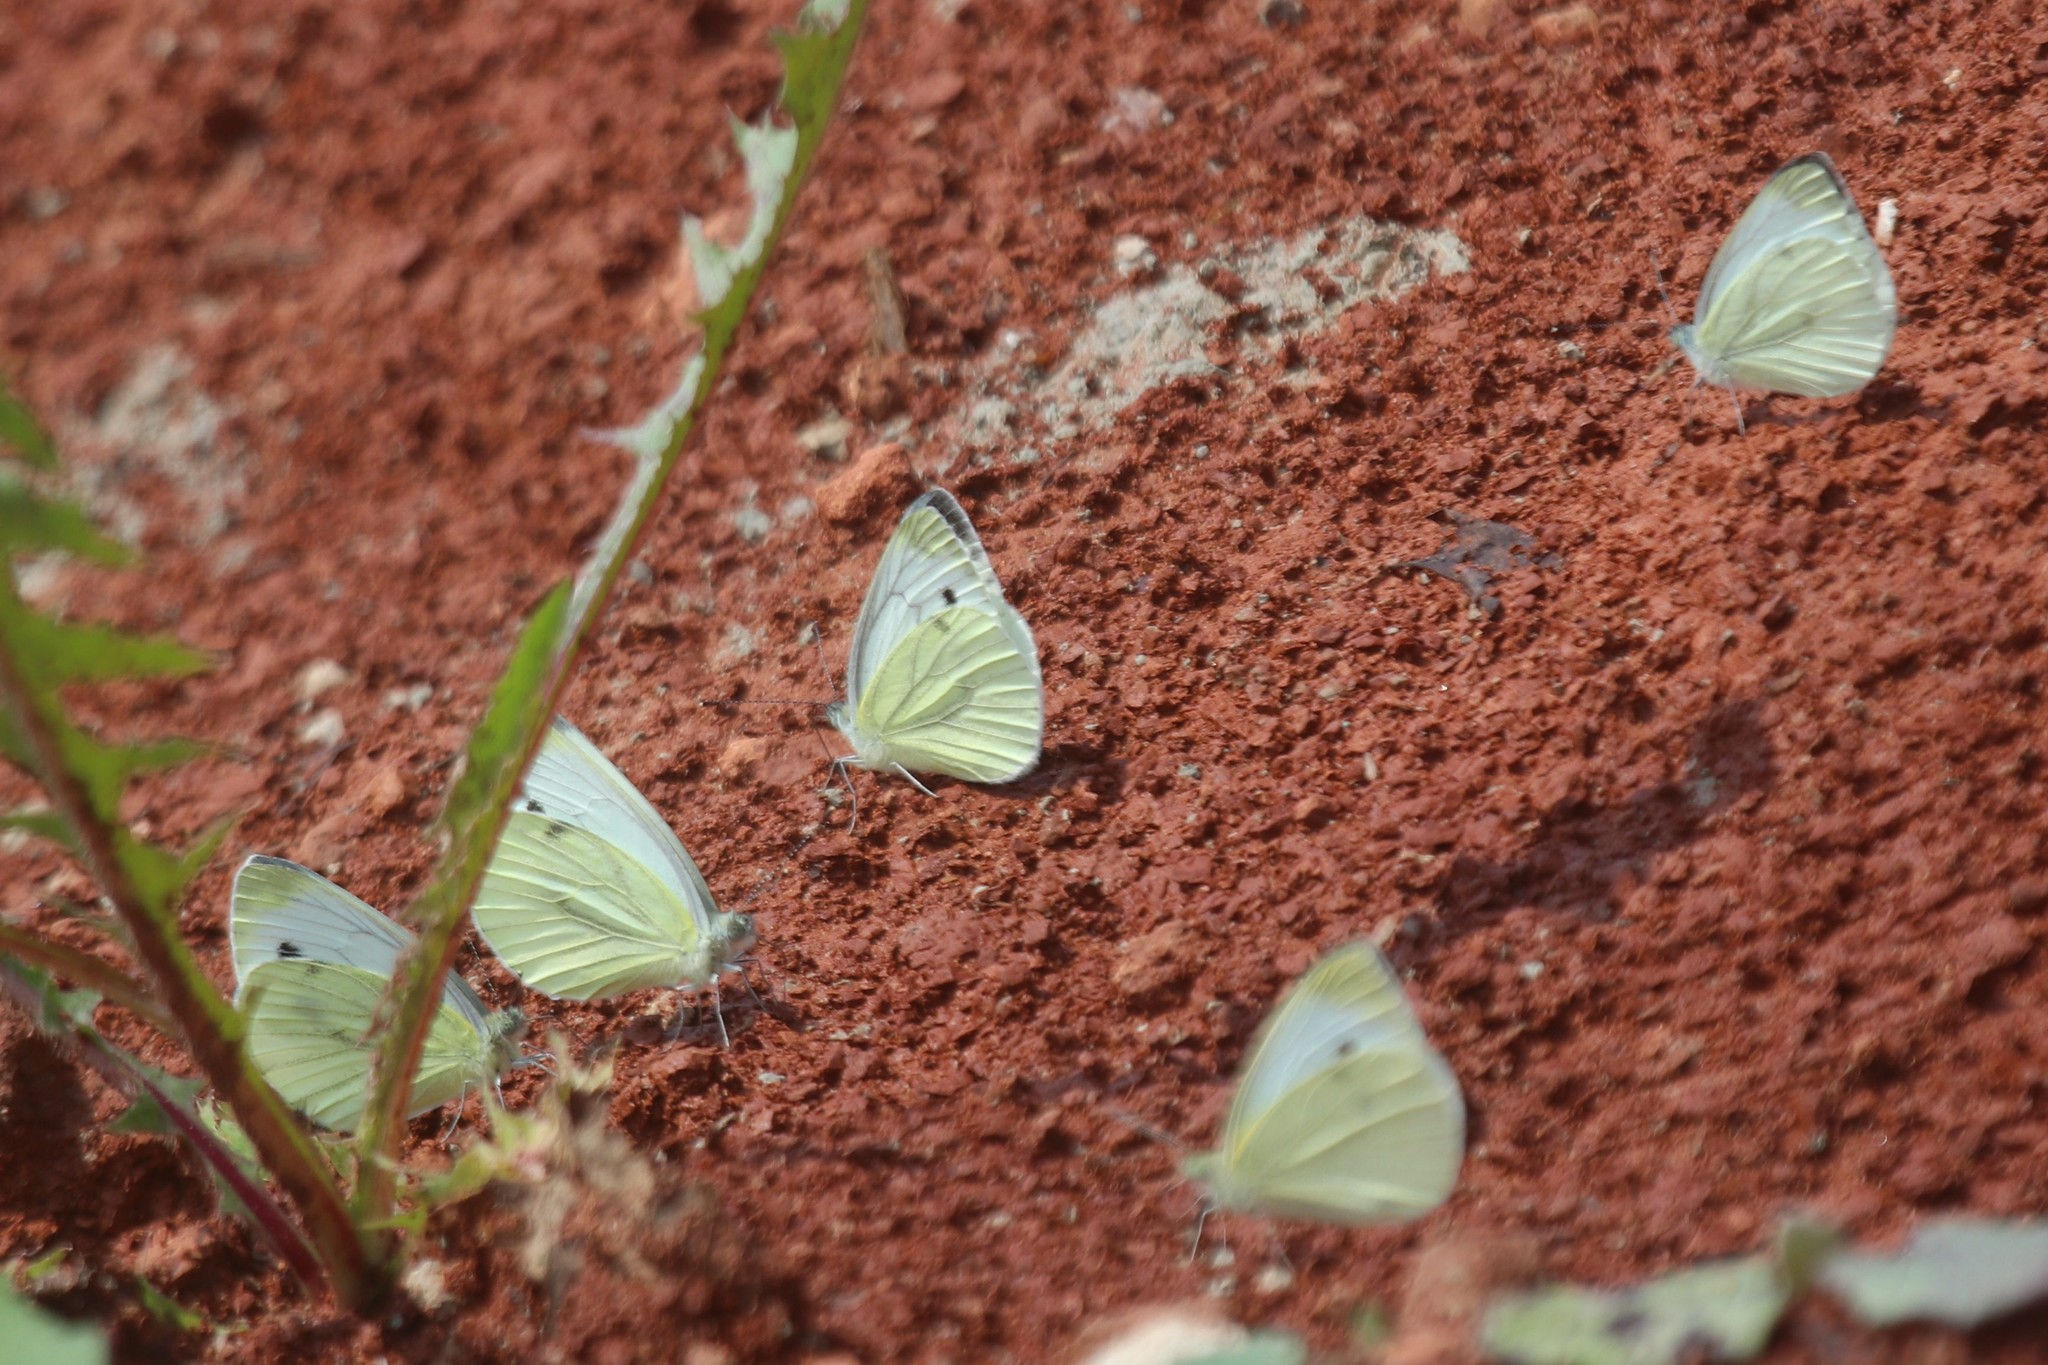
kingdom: Animalia
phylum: Arthropoda
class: Insecta
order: Lepidoptera
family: Pieridae
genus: Pieris
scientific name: Pieris napi
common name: Green-veined white
